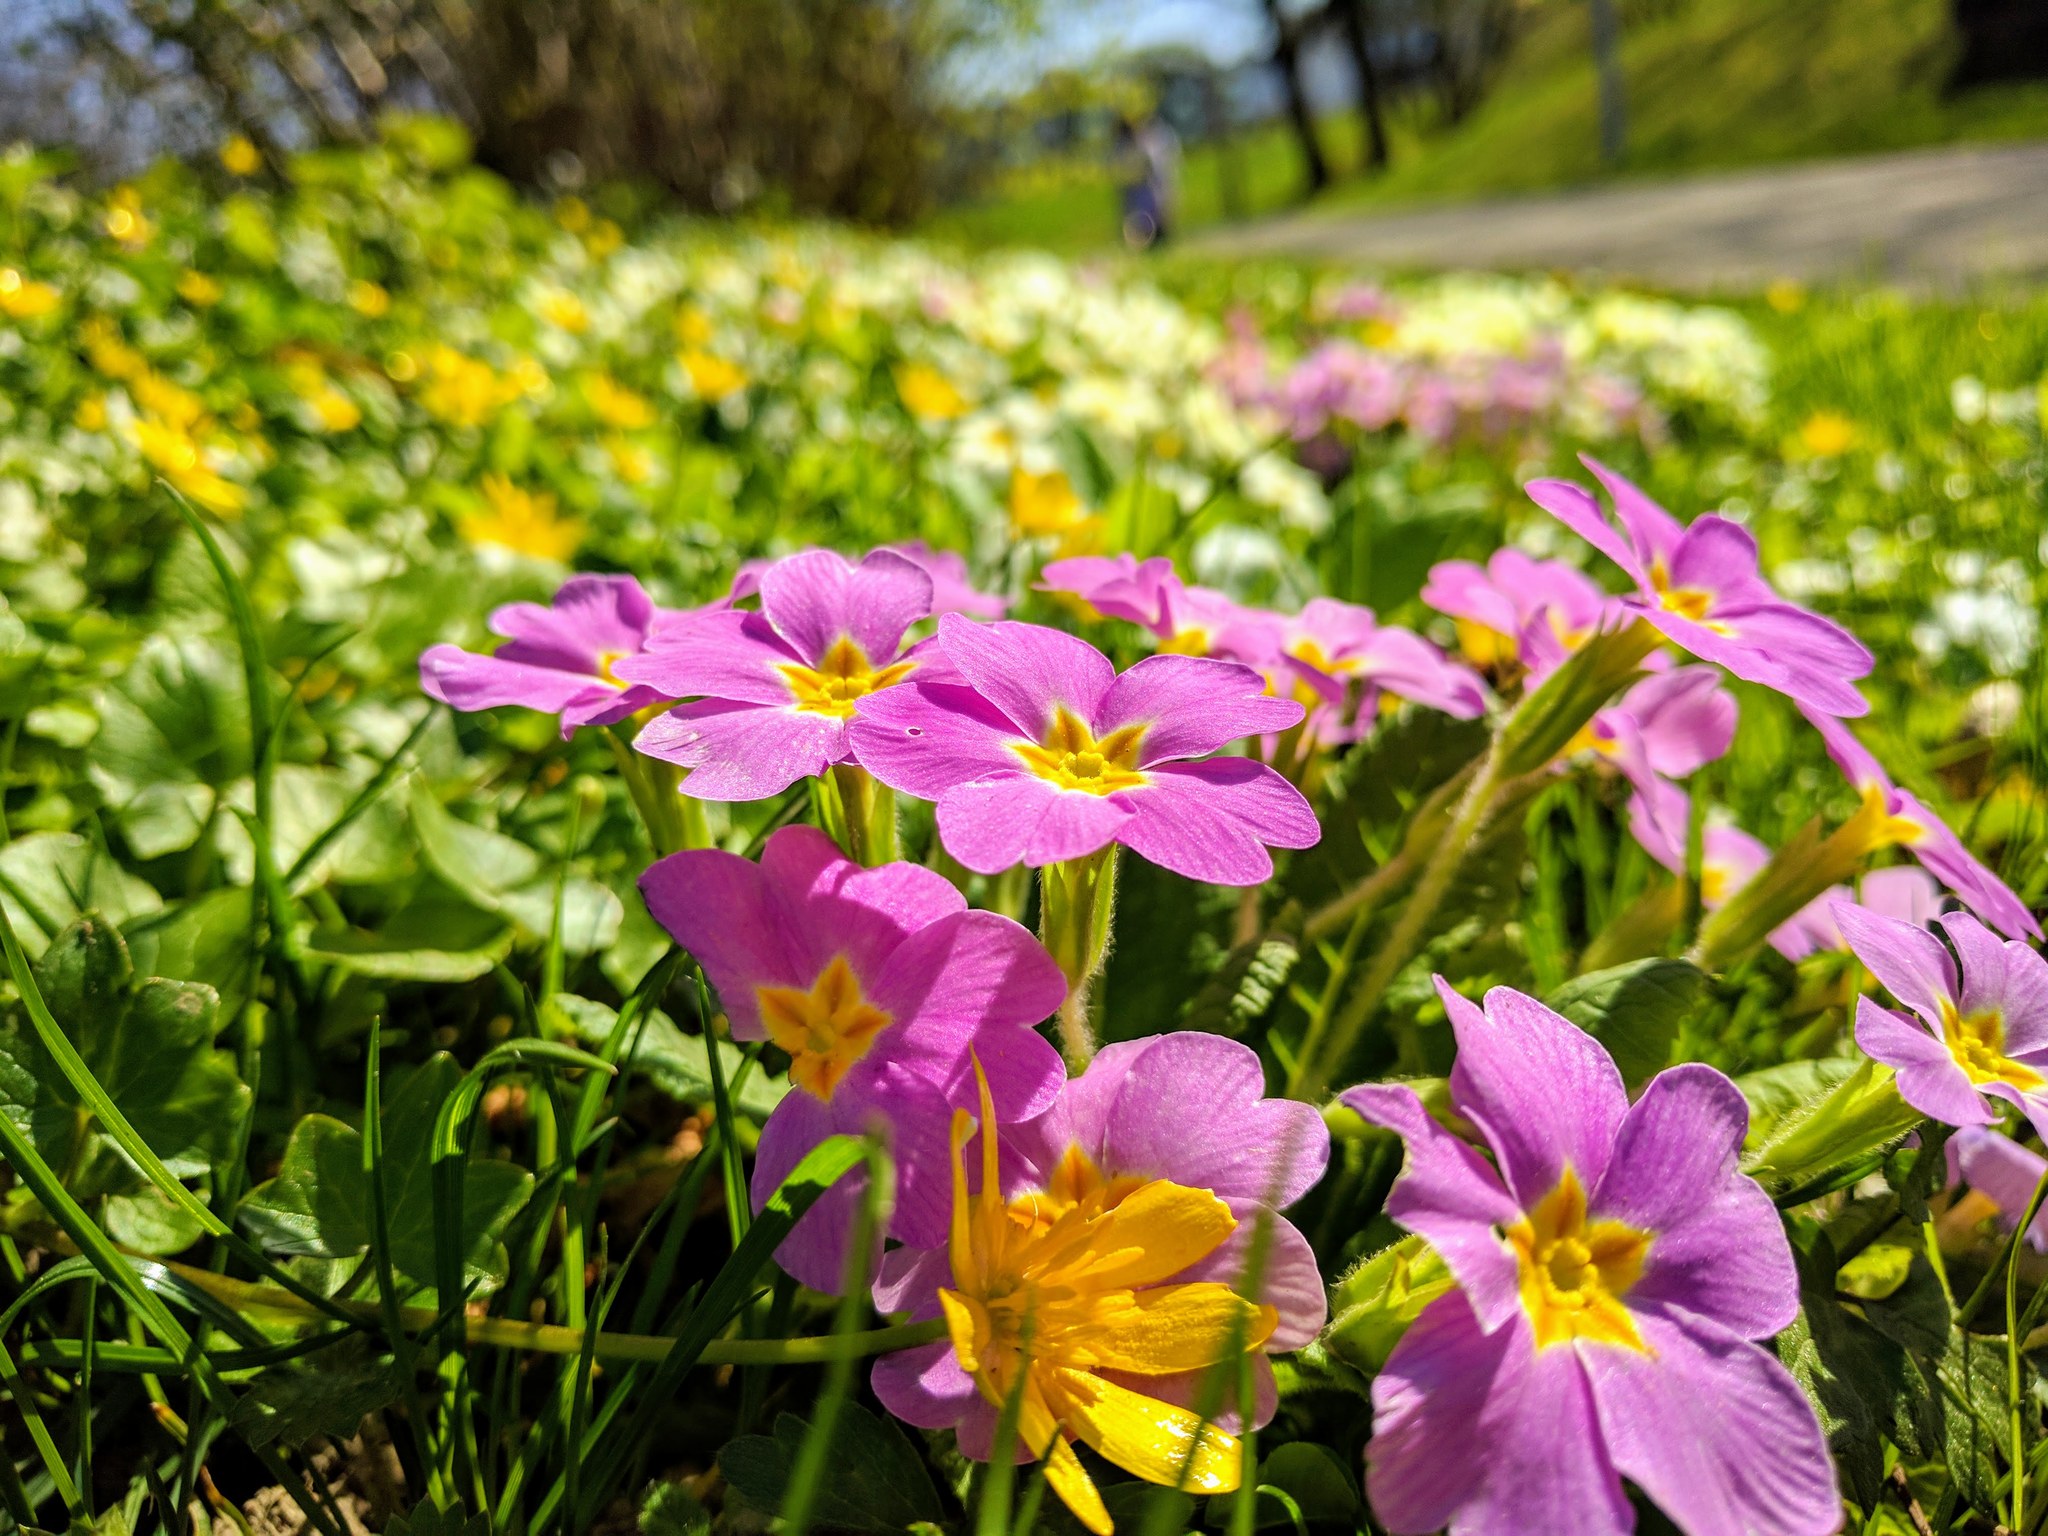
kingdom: Plantae
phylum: Tracheophyta
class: Magnoliopsida
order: Ericales
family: Primulaceae
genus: Primula
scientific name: Primula vulgaris
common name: Primrose
